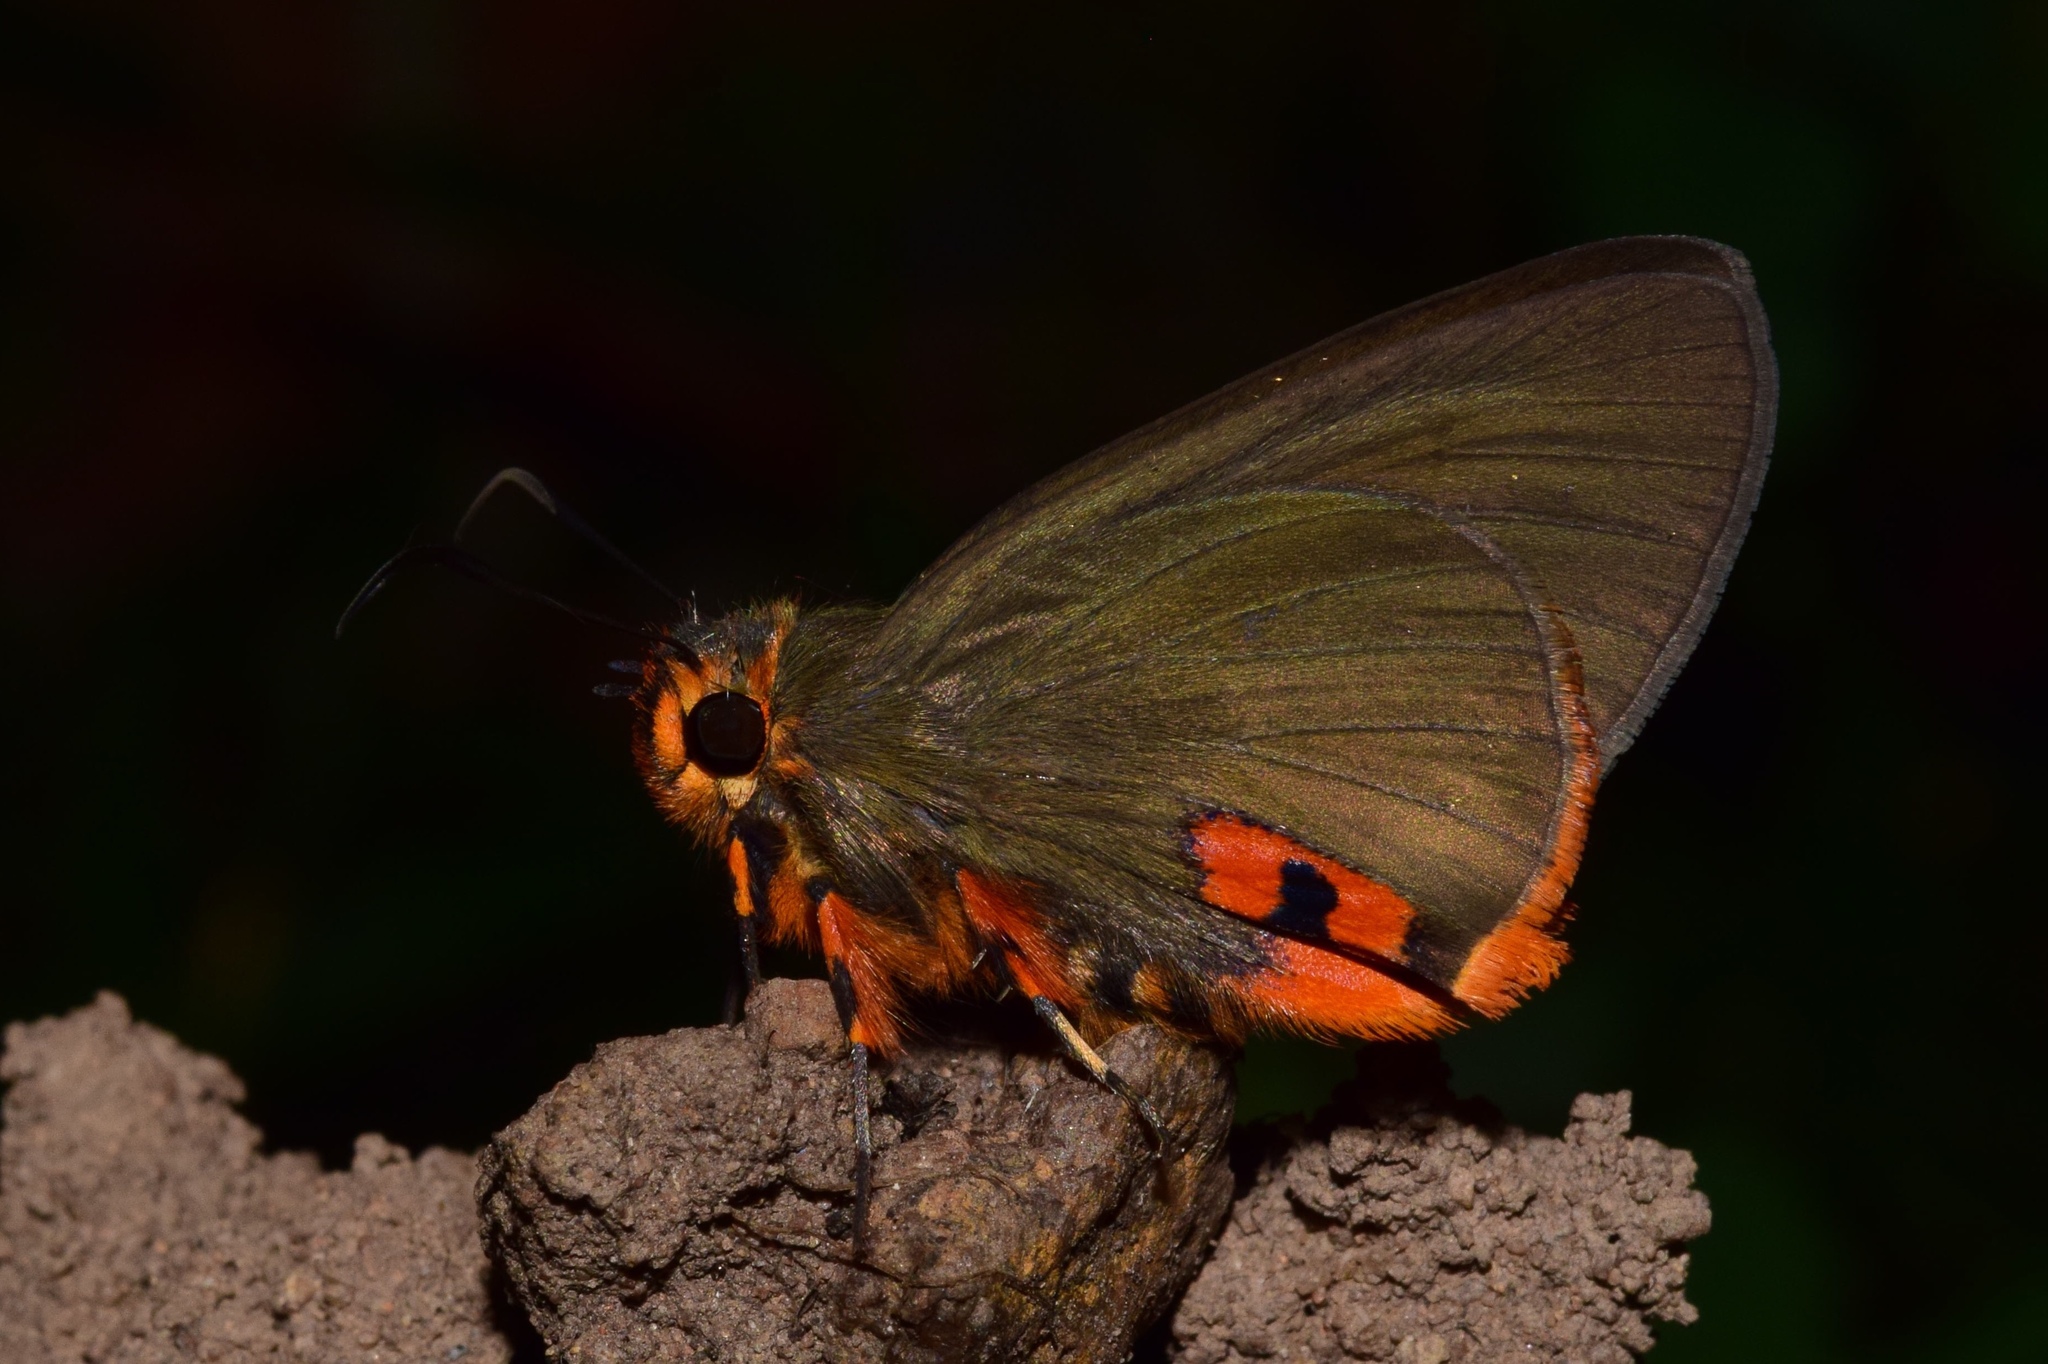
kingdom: Animalia
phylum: Arthropoda
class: Insecta
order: Lepidoptera
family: Hesperiidae
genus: Coeliades
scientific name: Coeliades keithloa
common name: Red-tab policeman
